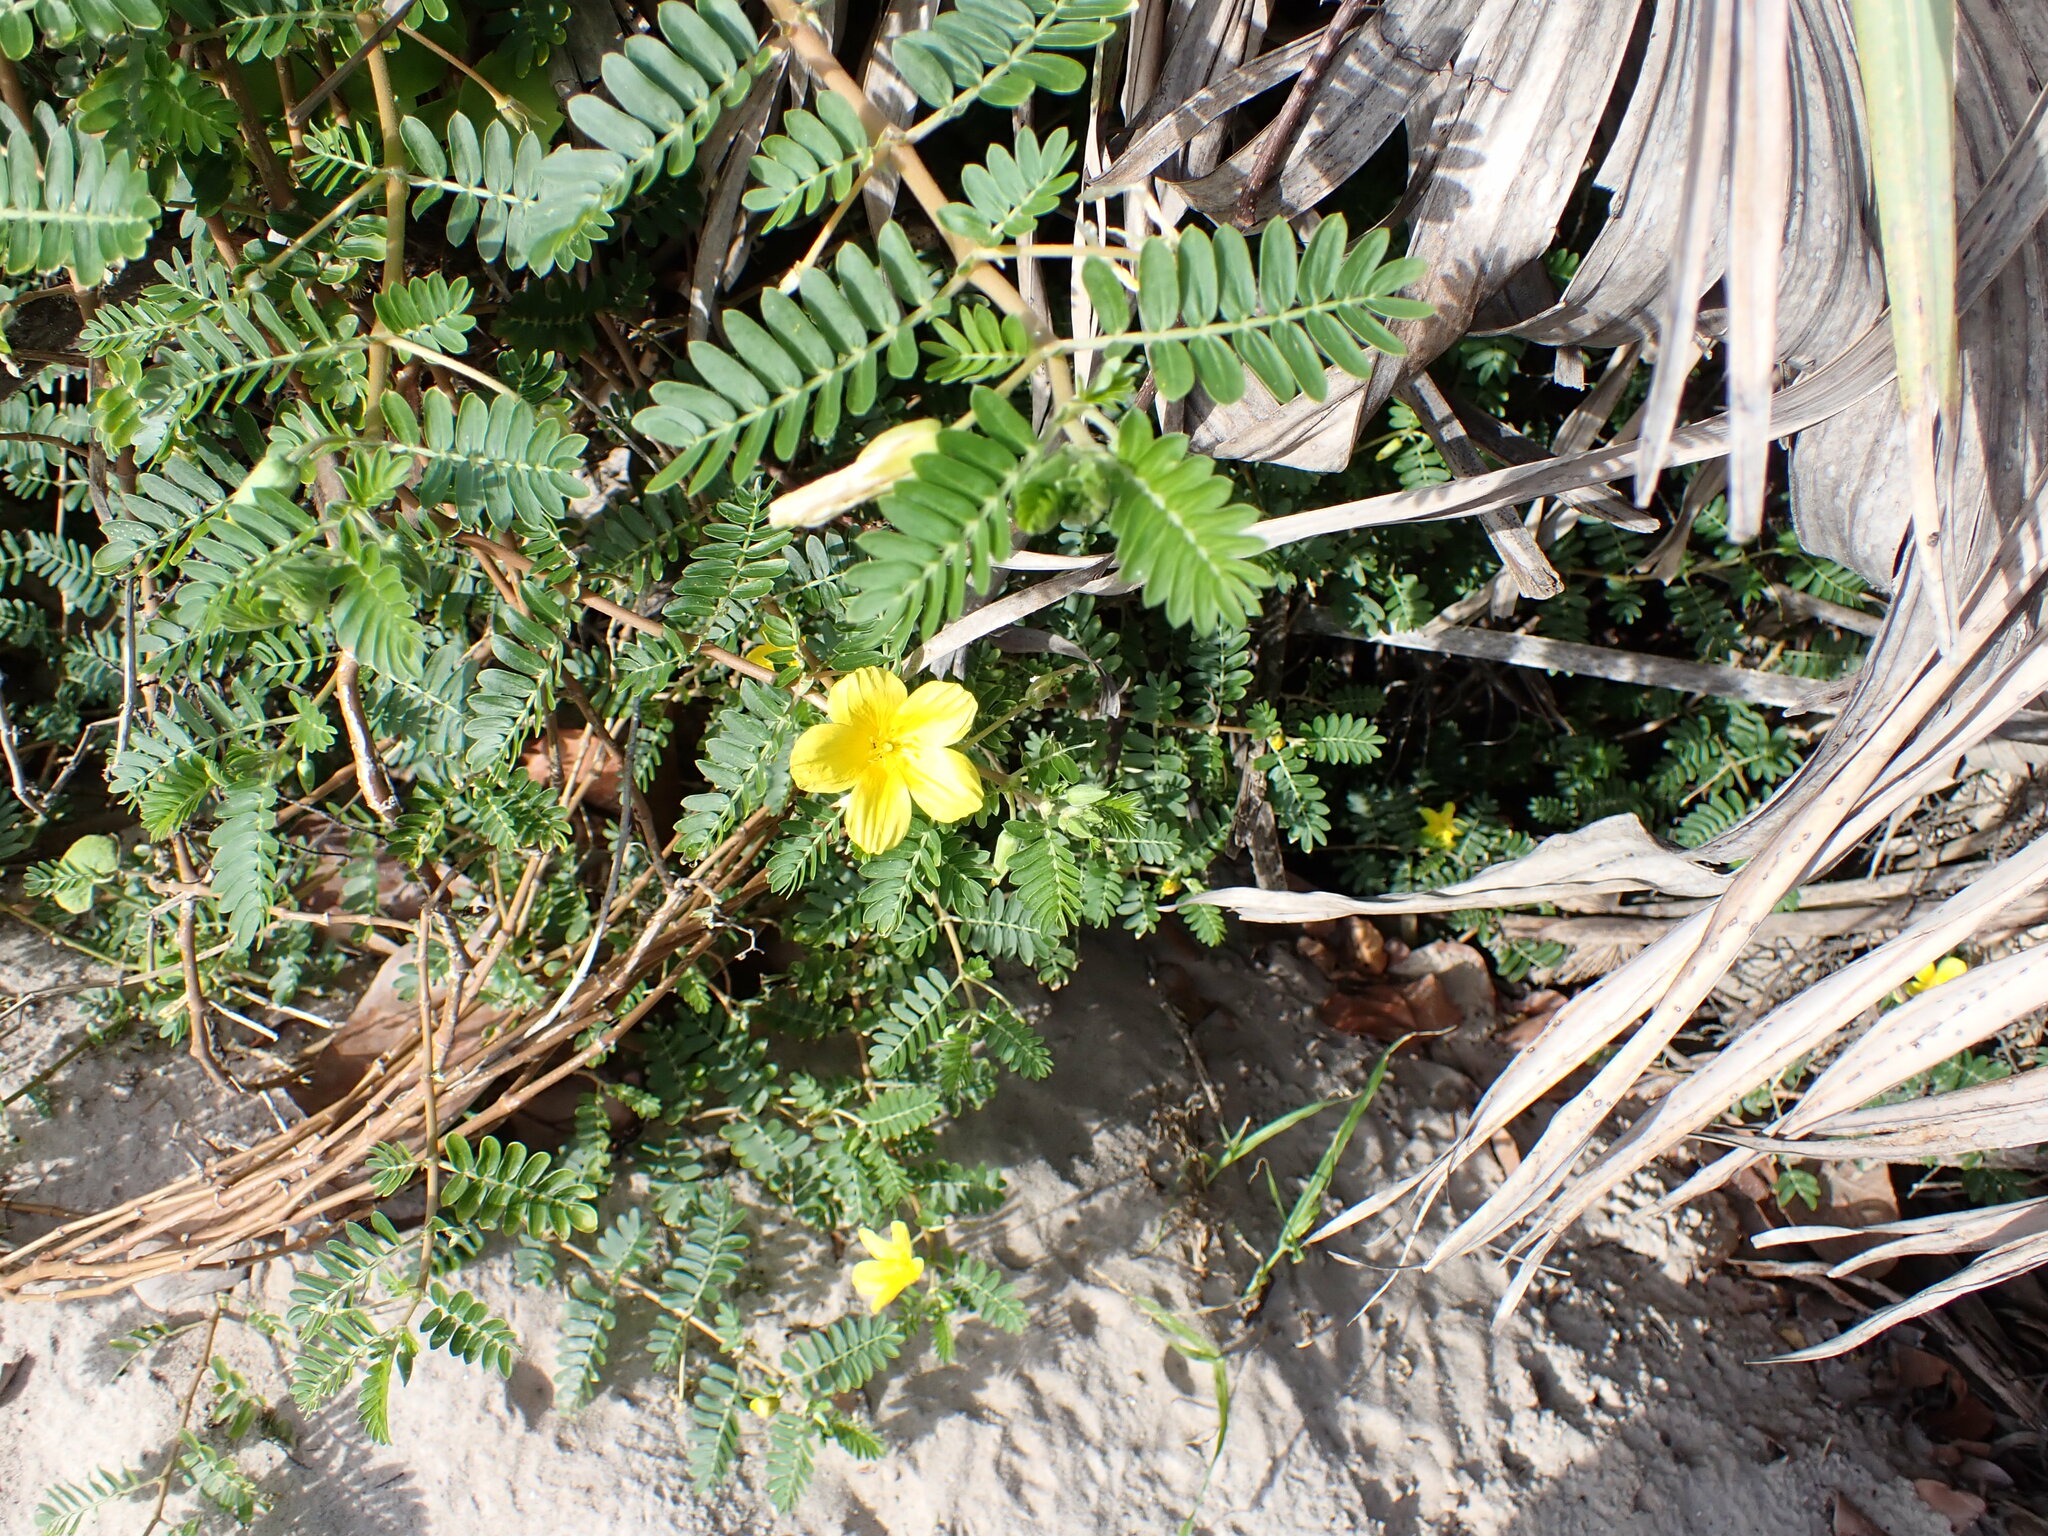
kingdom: Plantae
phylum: Tracheophyta
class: Magnoliopsida
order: Zygophyllales
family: Zygophyllaceae
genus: Tribulus
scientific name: Tribulus cistoides
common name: Jamaican feverplant
